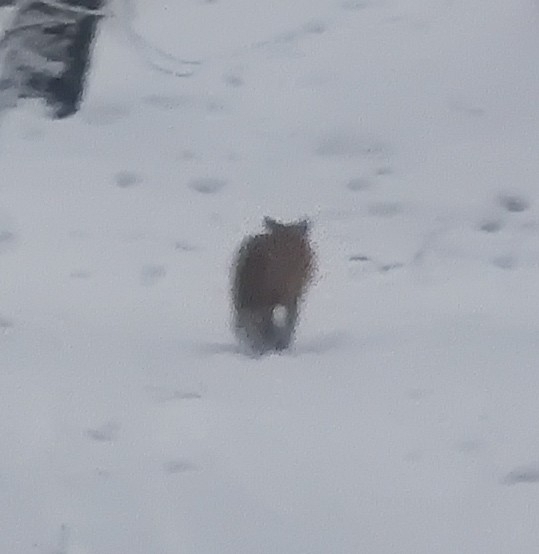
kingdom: Animalia
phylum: Chordata
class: Mammalia
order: Carnivora
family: Canidae
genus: Vulpes
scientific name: Vulpes vulpes
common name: Red fox
